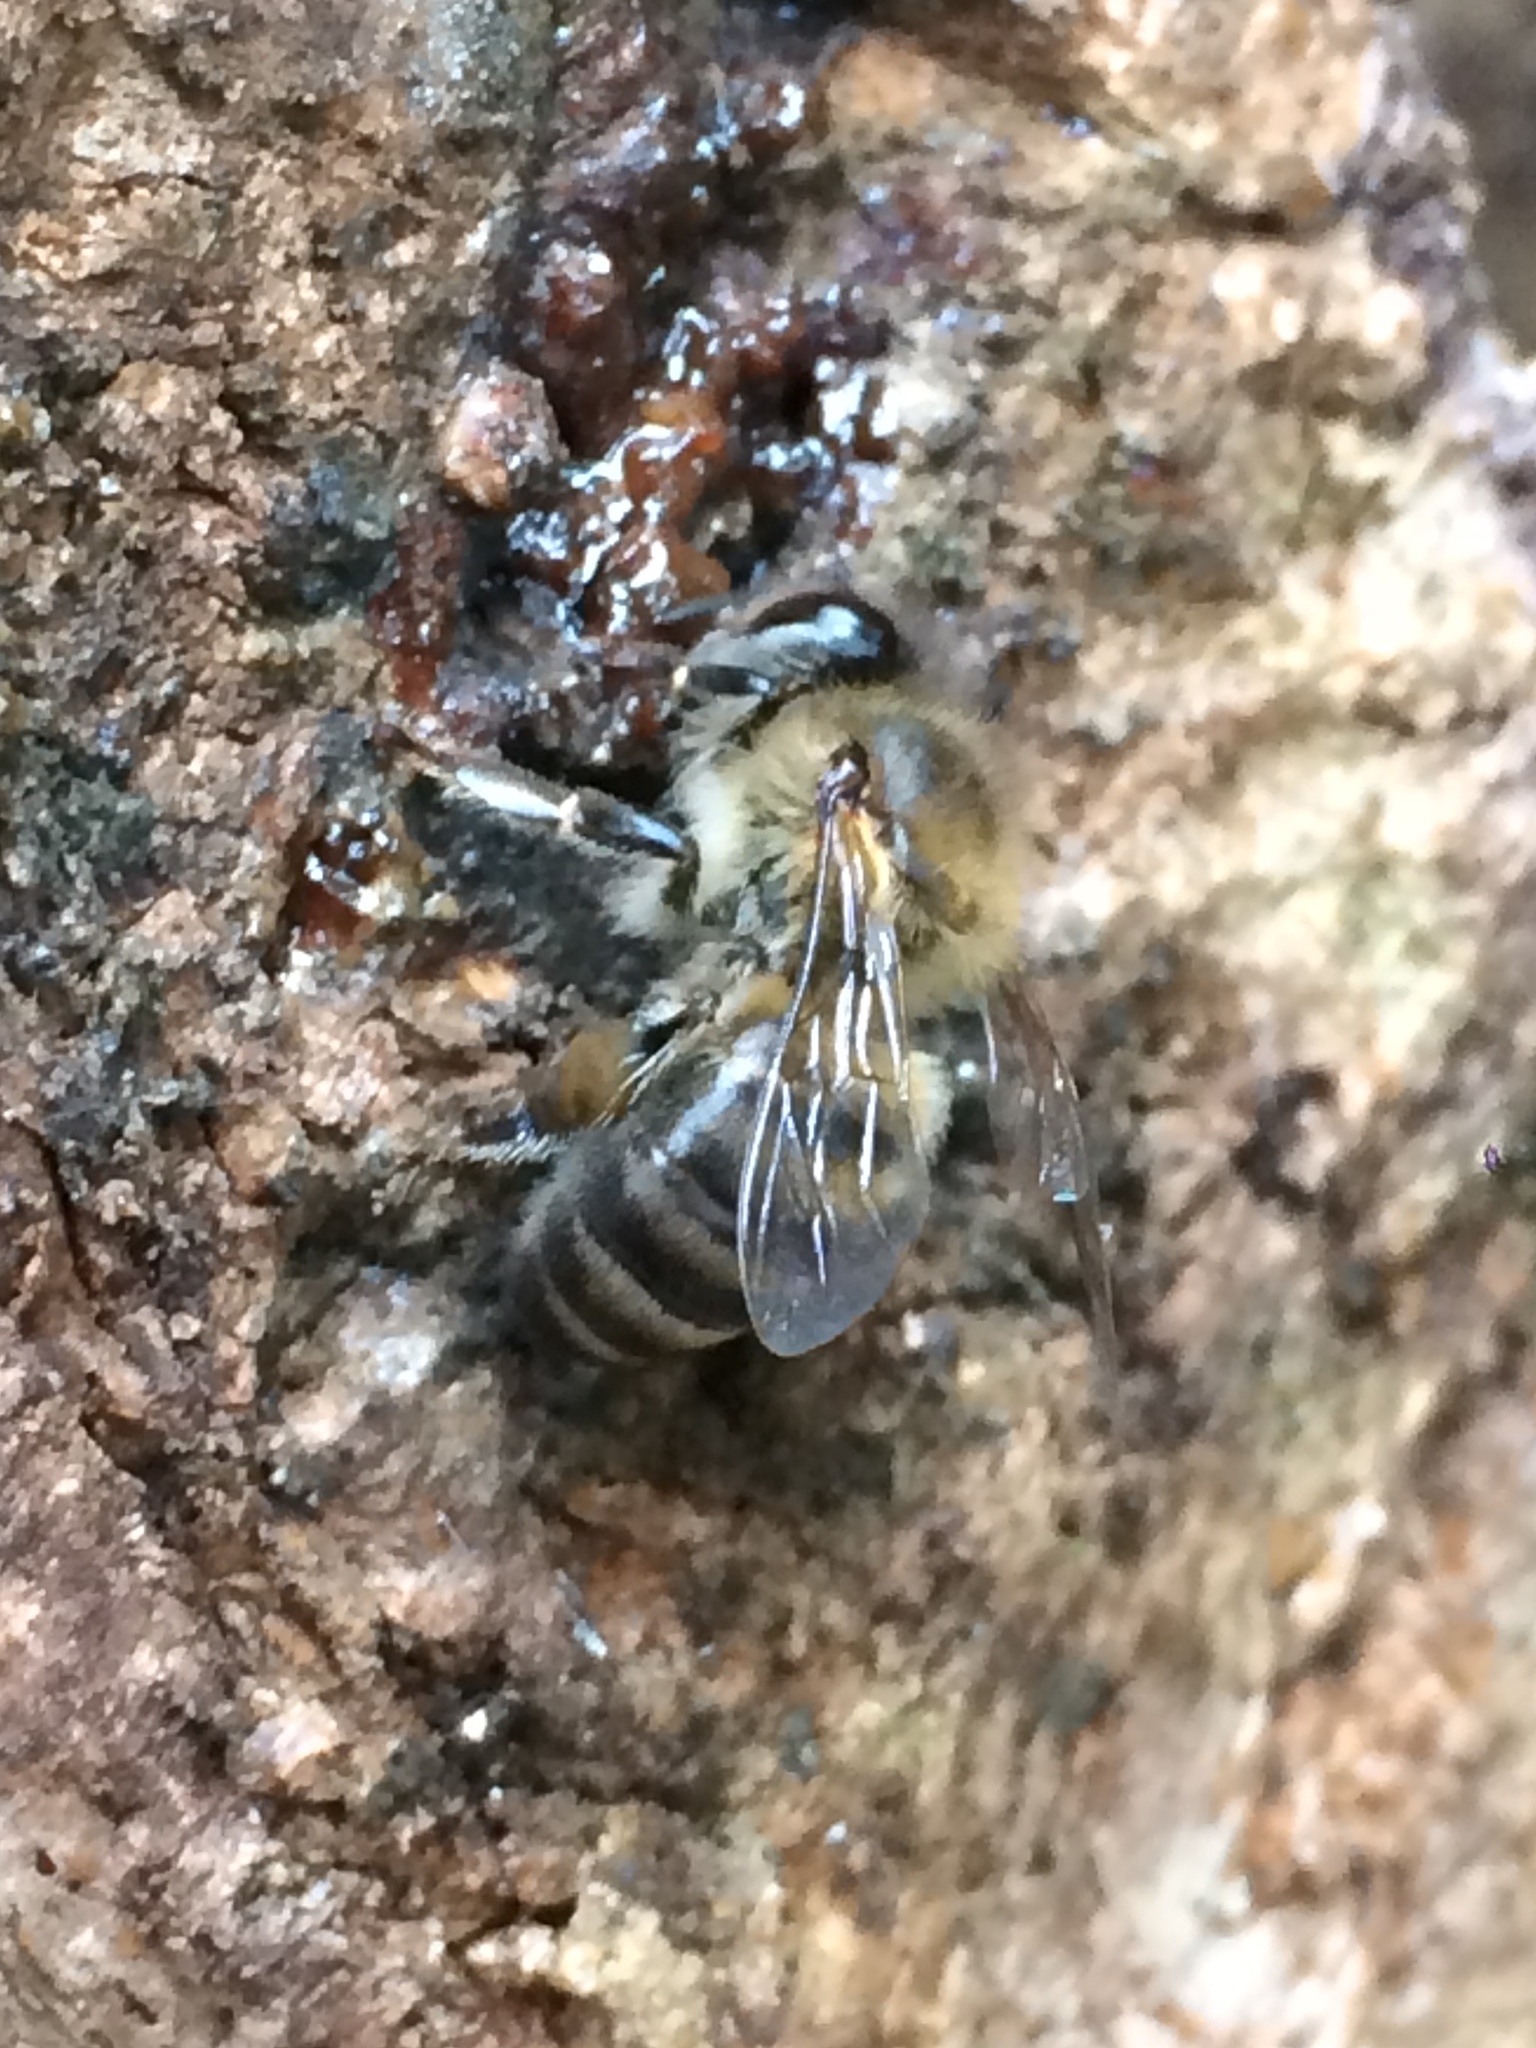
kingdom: Animalia
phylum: Arthropoda
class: Insecta
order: Hymenoptera
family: Apidae
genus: Apis
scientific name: Apis mellifera
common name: Honey bee
